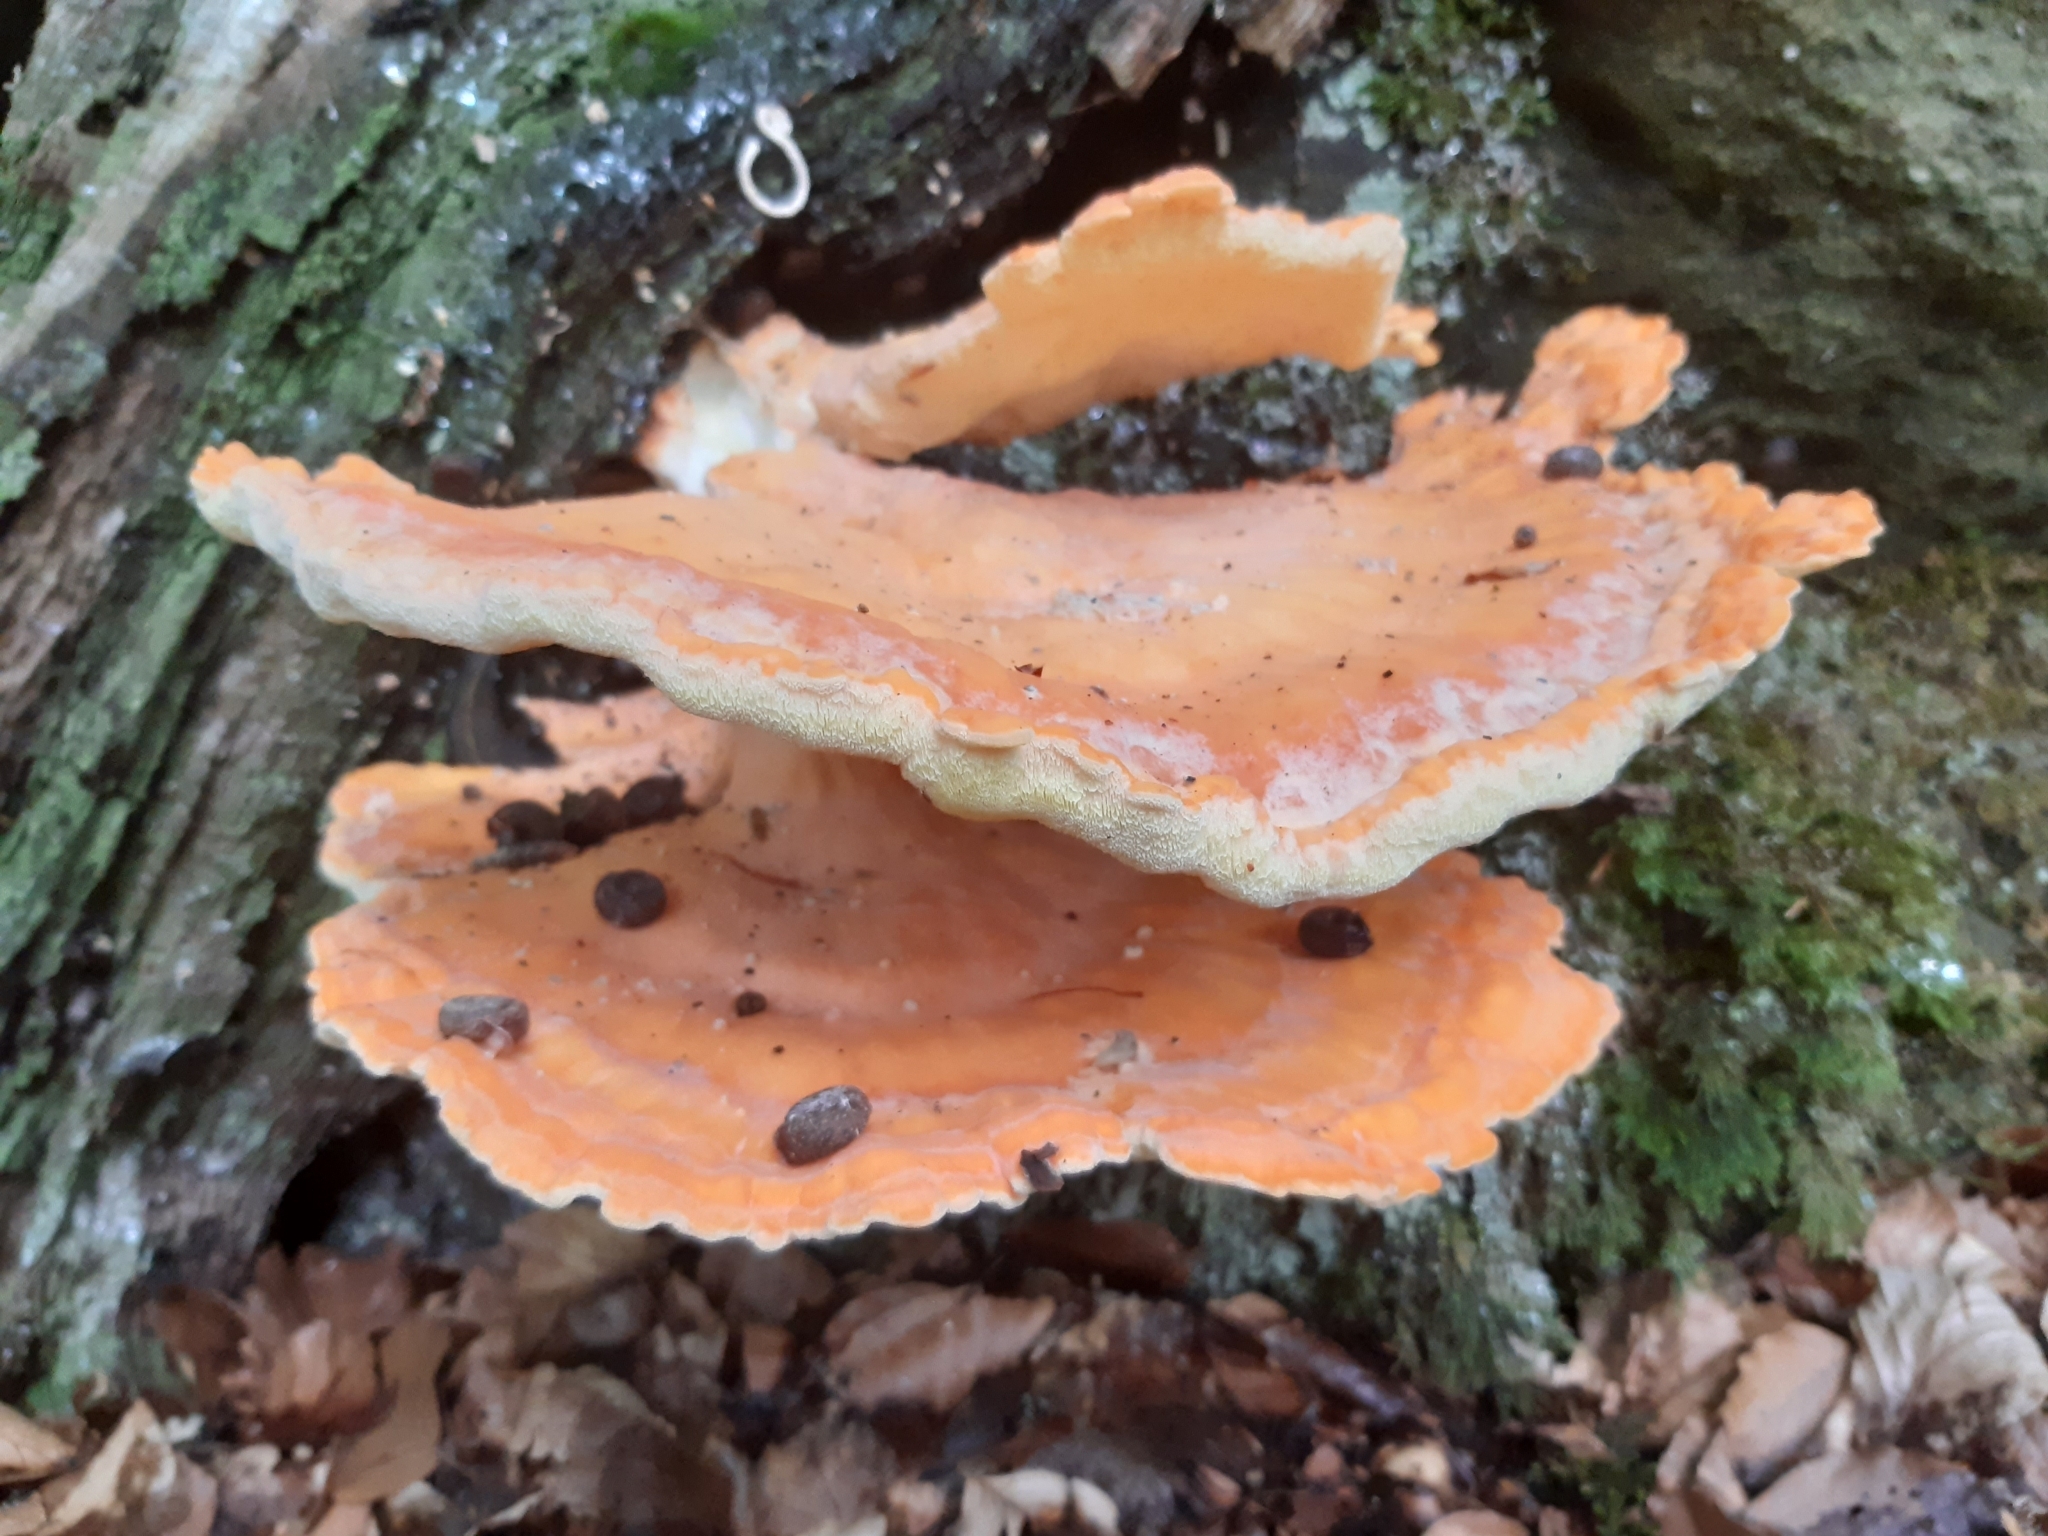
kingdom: Fungi
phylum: Basidiomycota
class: Agaricomycetes
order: Polyporales
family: Laetiporaceae
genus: Laetiporus
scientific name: Laetiporus sulphureus
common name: Chicken of the woods
